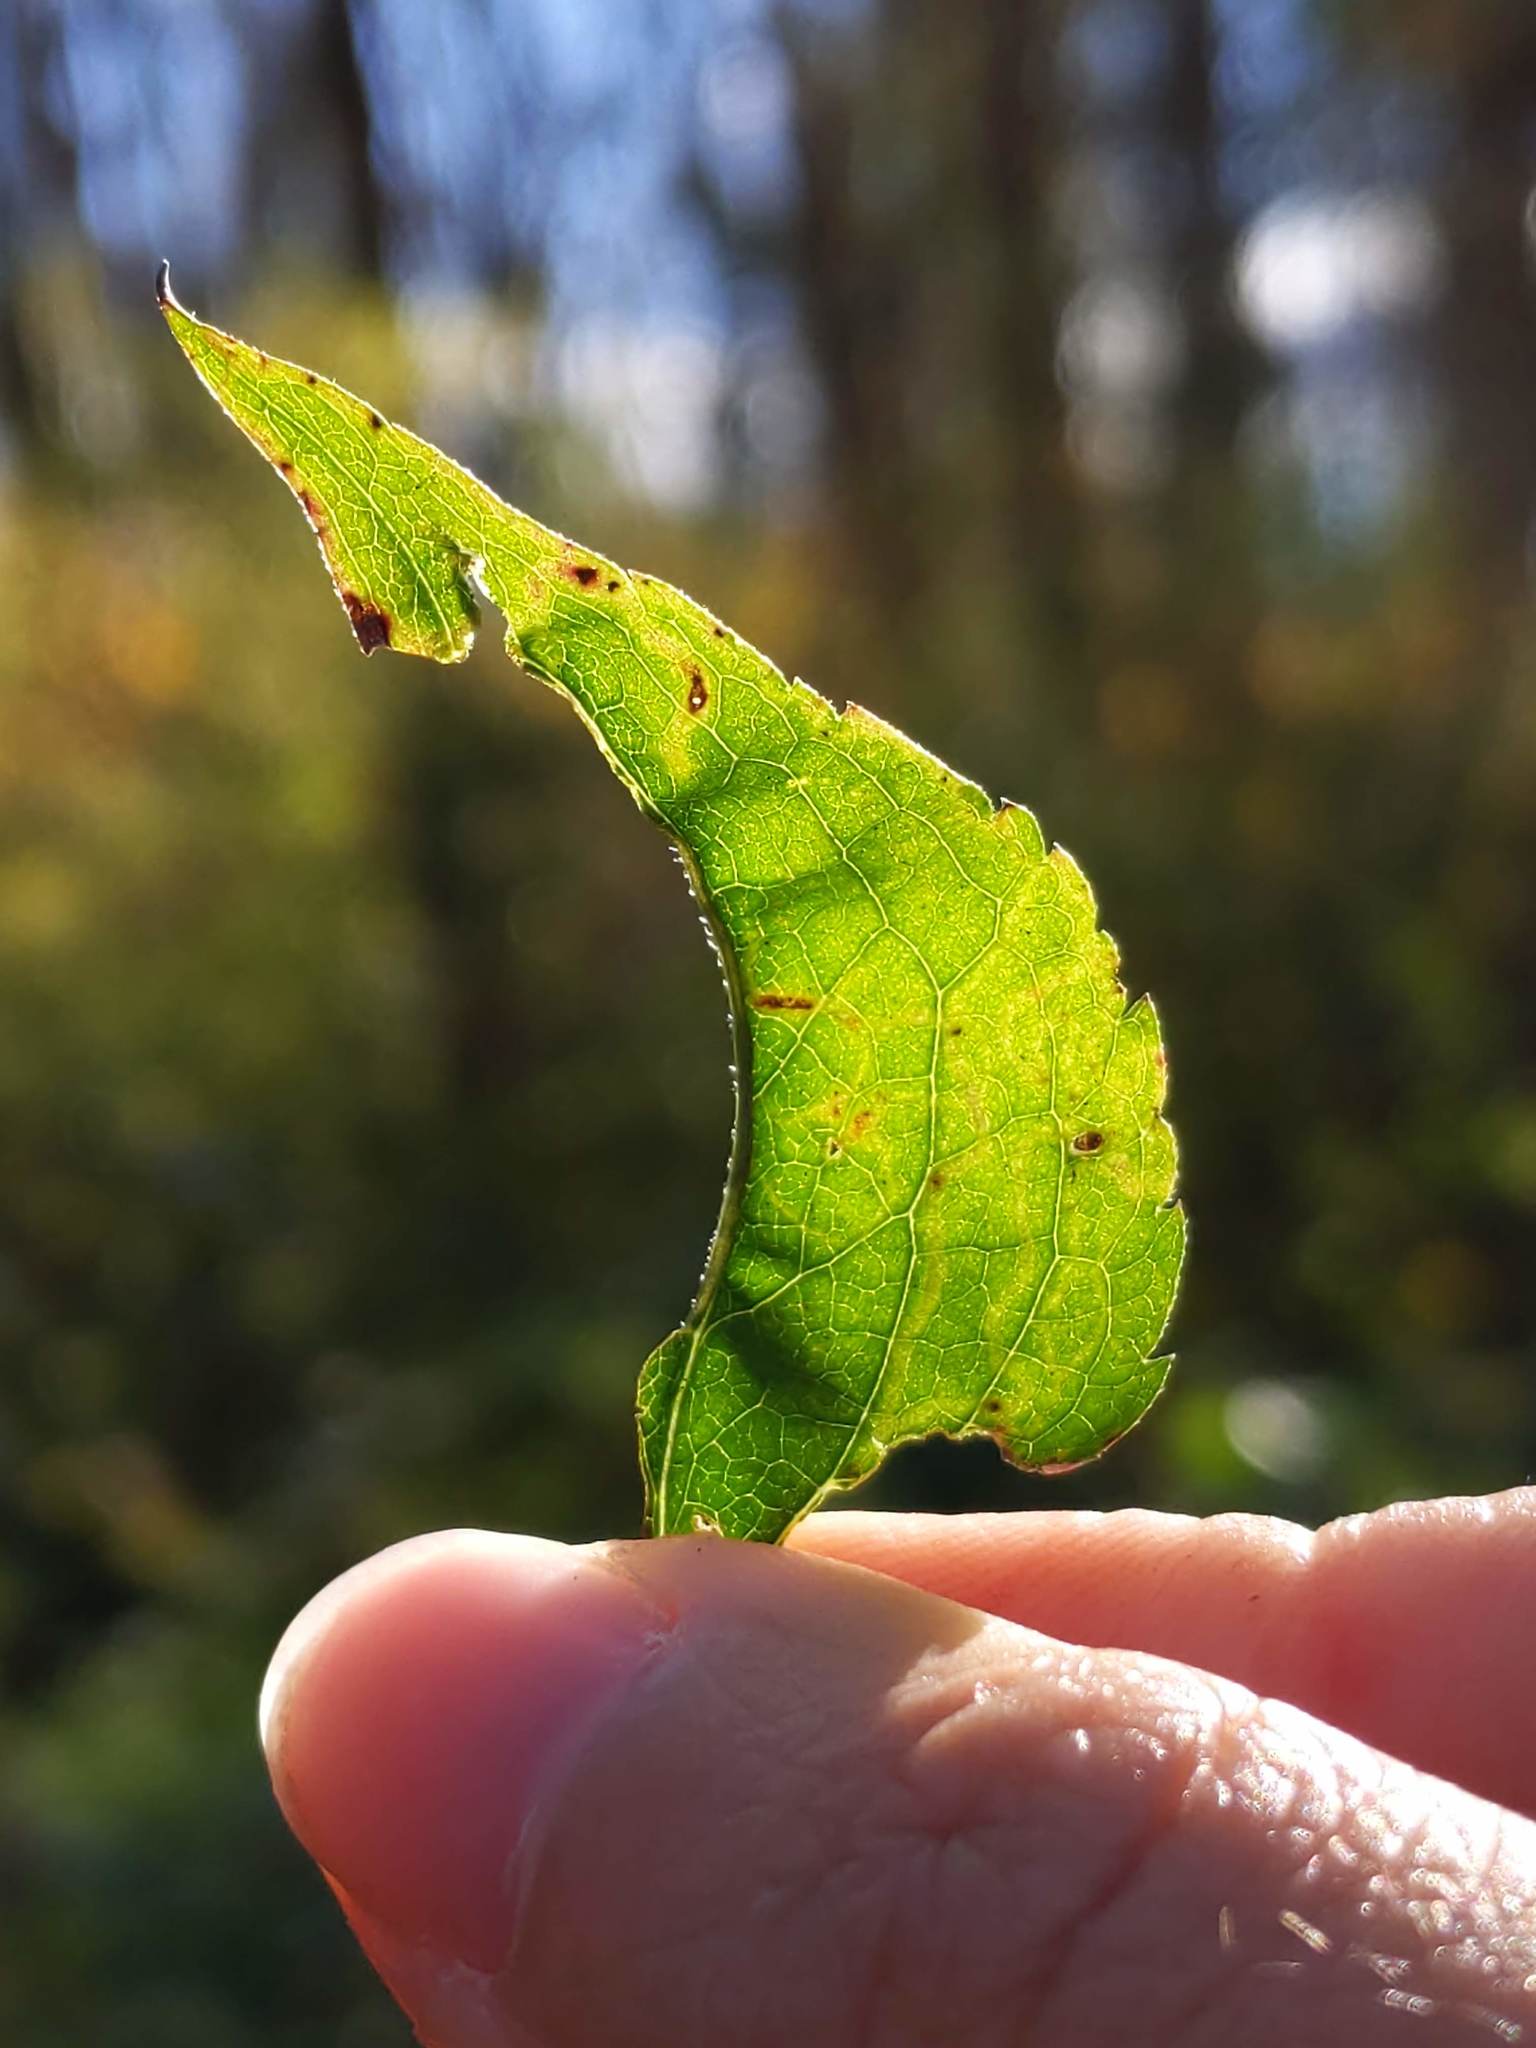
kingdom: Animalia
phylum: Arthropoda
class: Insecta
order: Diptera
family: Agromyzidae
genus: Ophiomyia
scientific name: Ophiomyia parda
